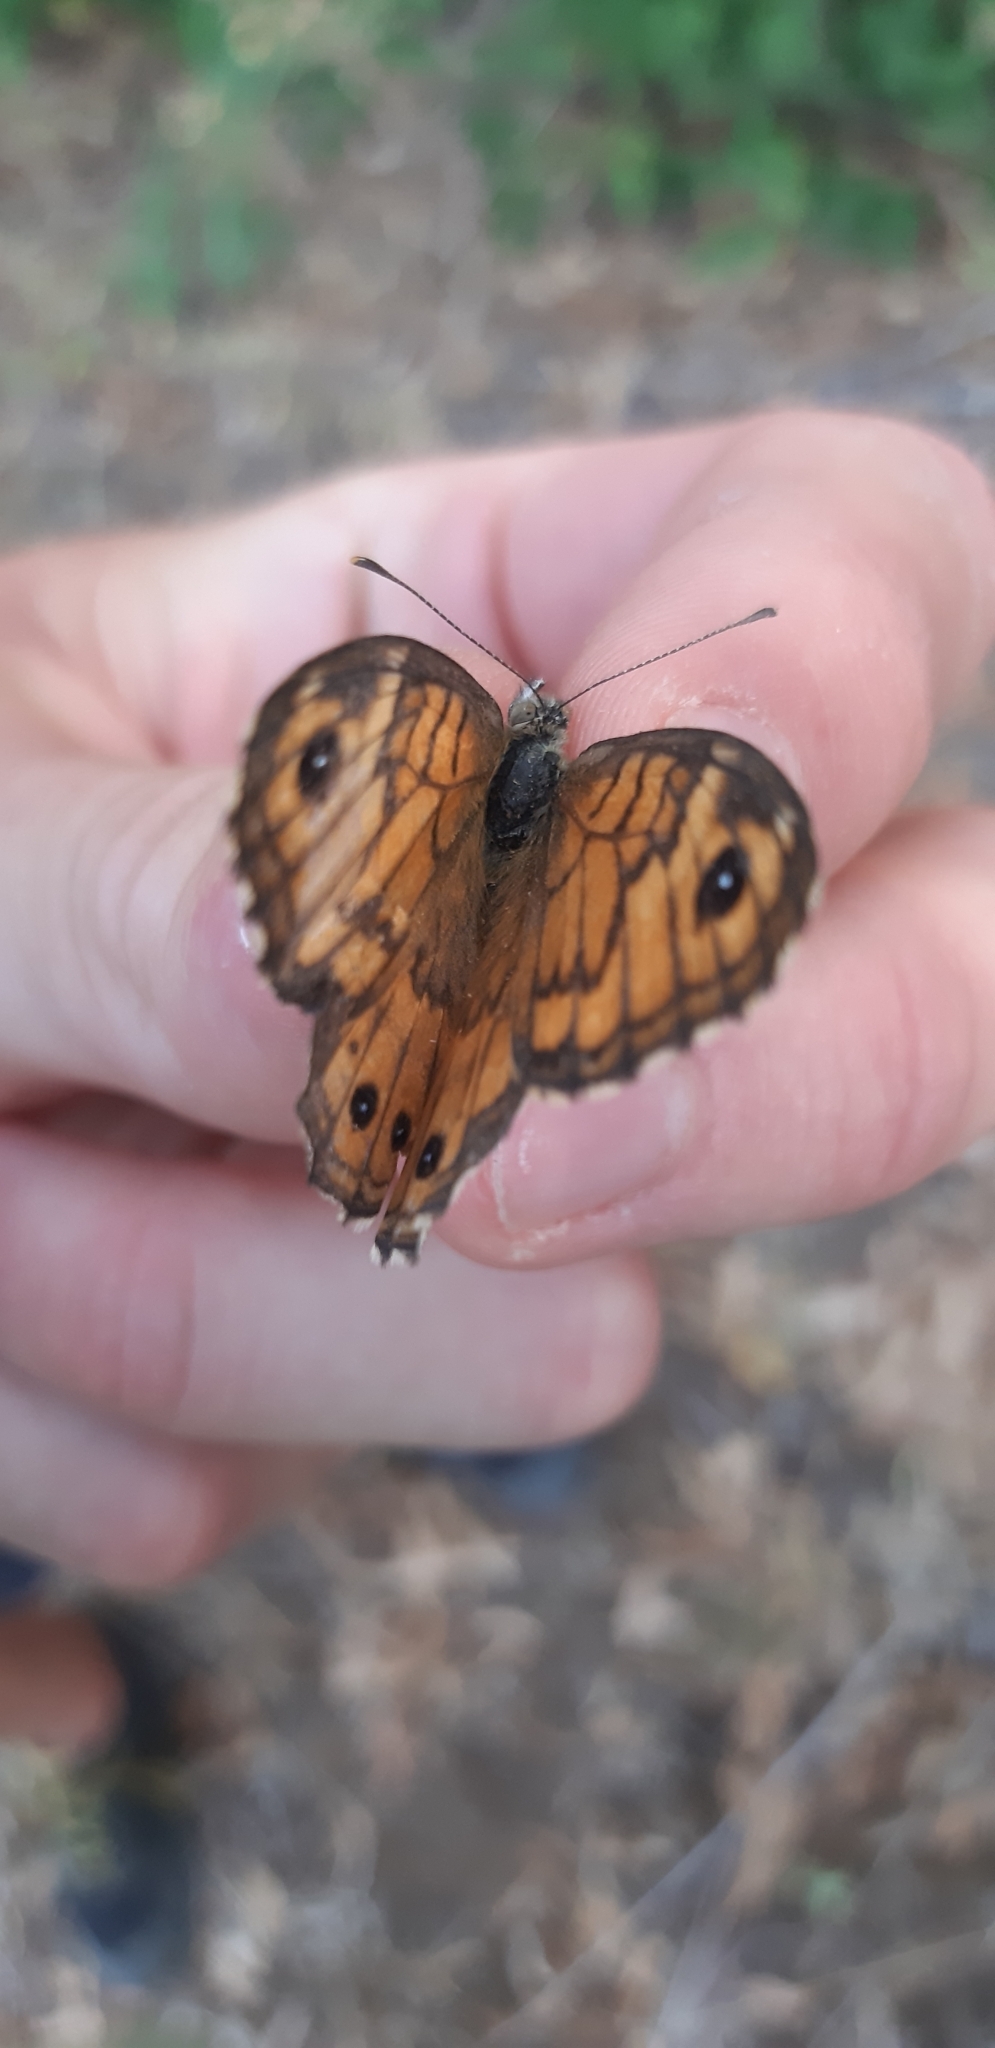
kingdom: Animalia
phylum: Arthropoda
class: Insecta
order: Lepidoptera
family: Nymphalidae
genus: Pararge
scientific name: Pararge Lasiommata megera
